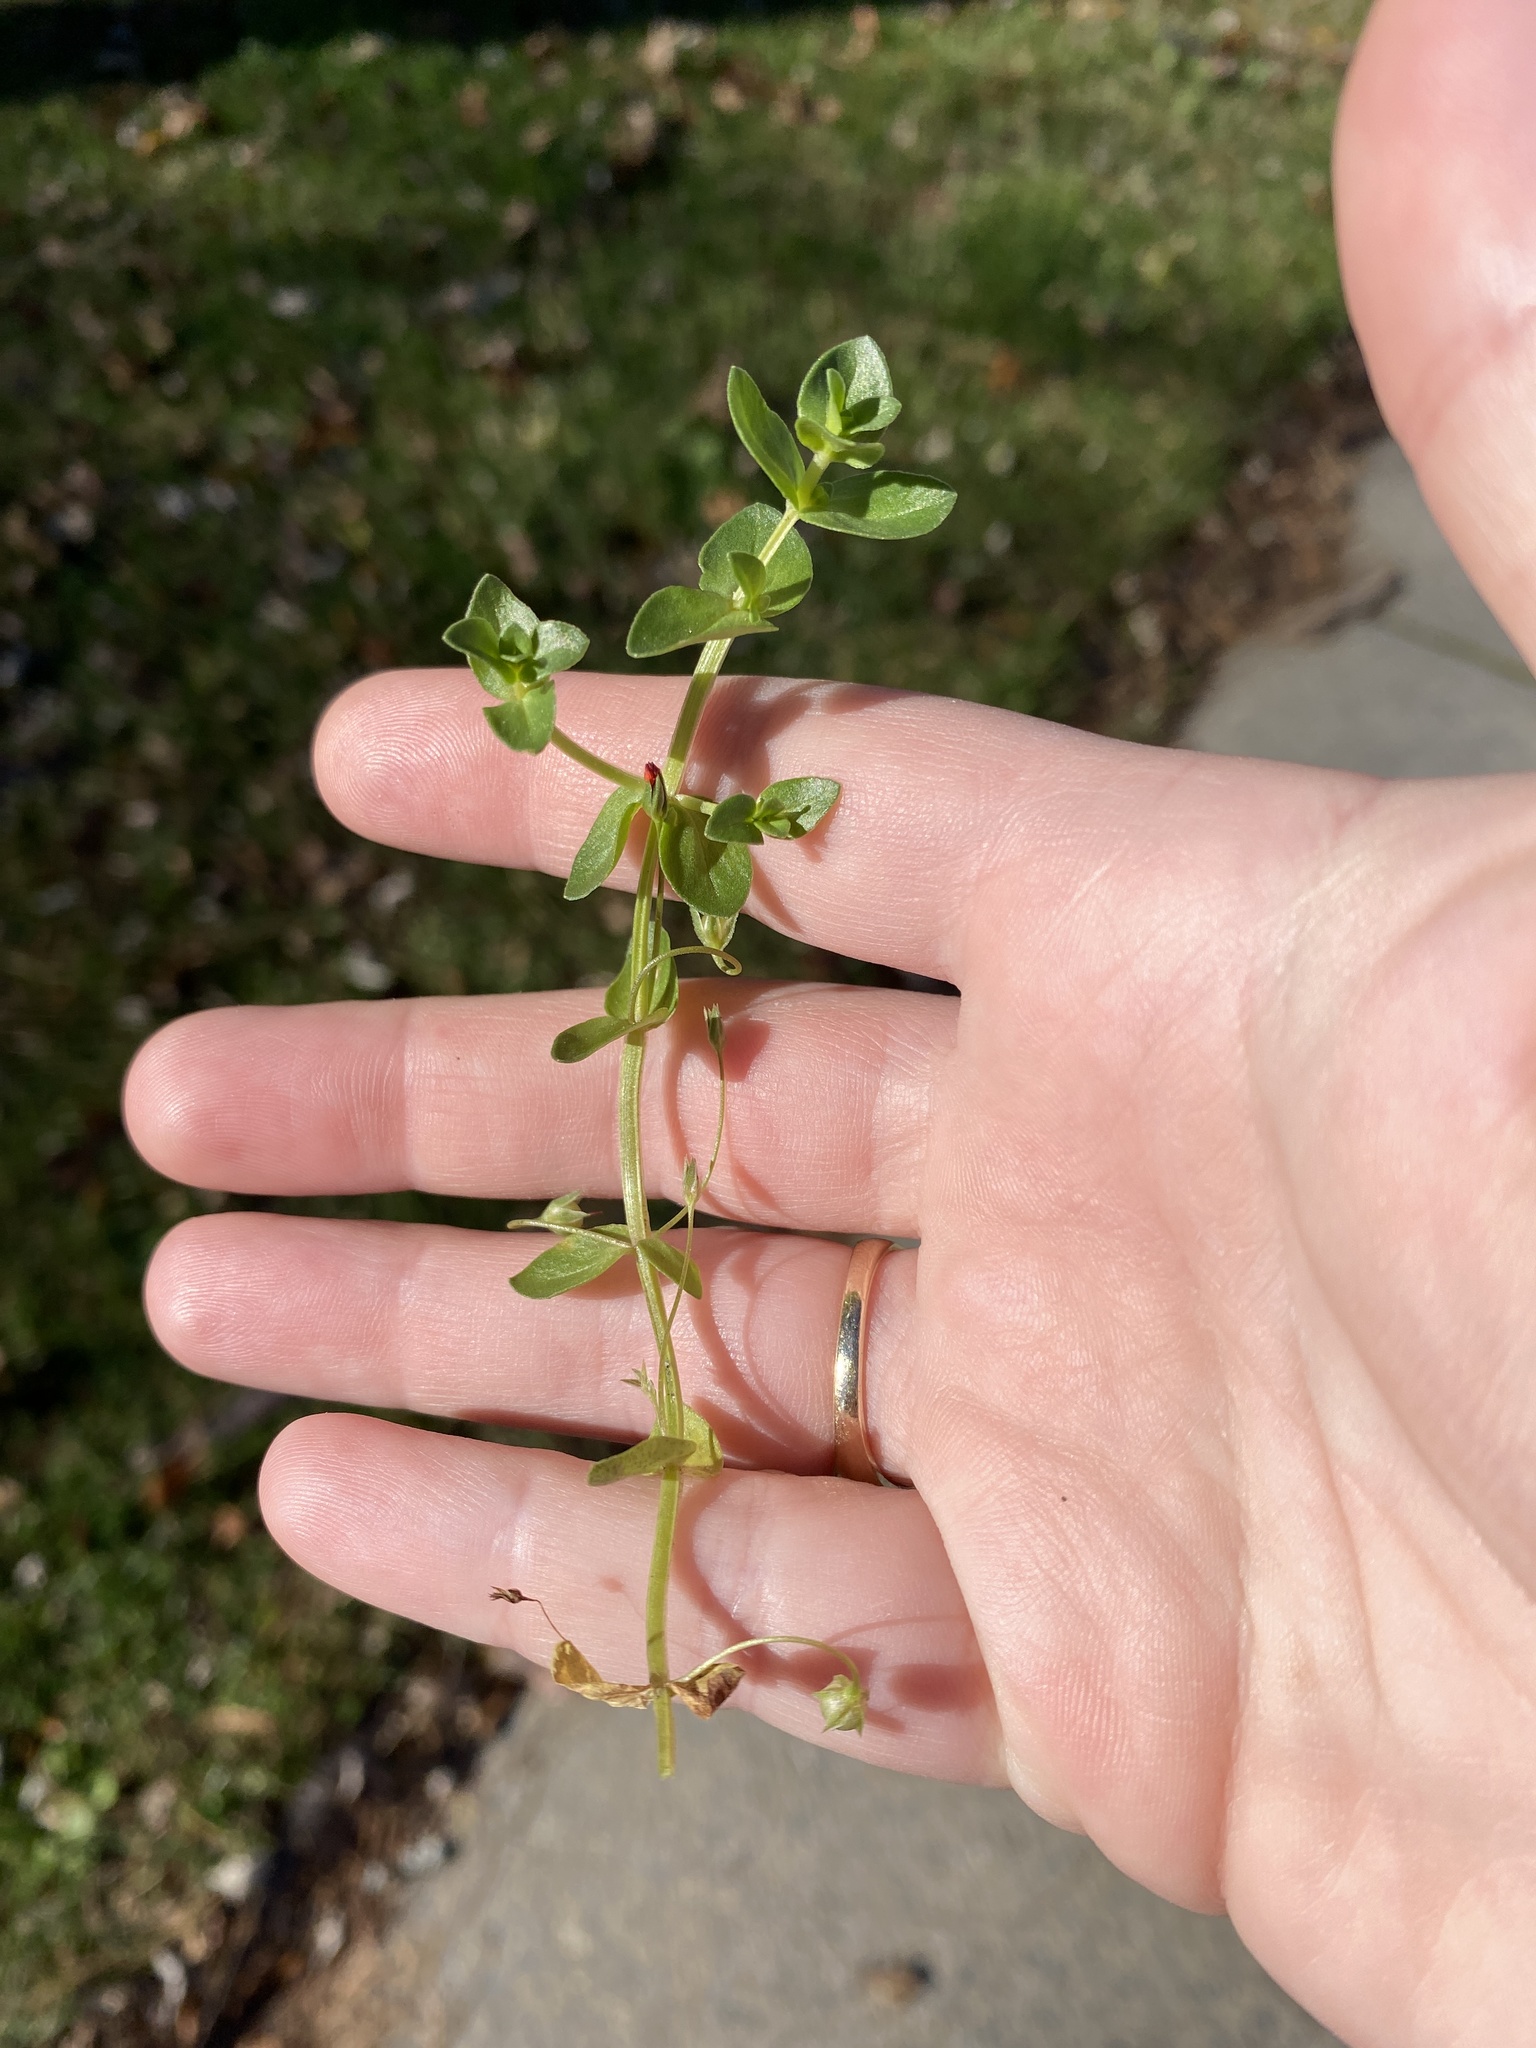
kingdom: Plantae
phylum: Tracheophyta
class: Magnoliopsida
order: Ericales
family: Primulaceae
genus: Lysimachia
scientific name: Lysimachia arvensis
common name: Scarlet pimpernel
